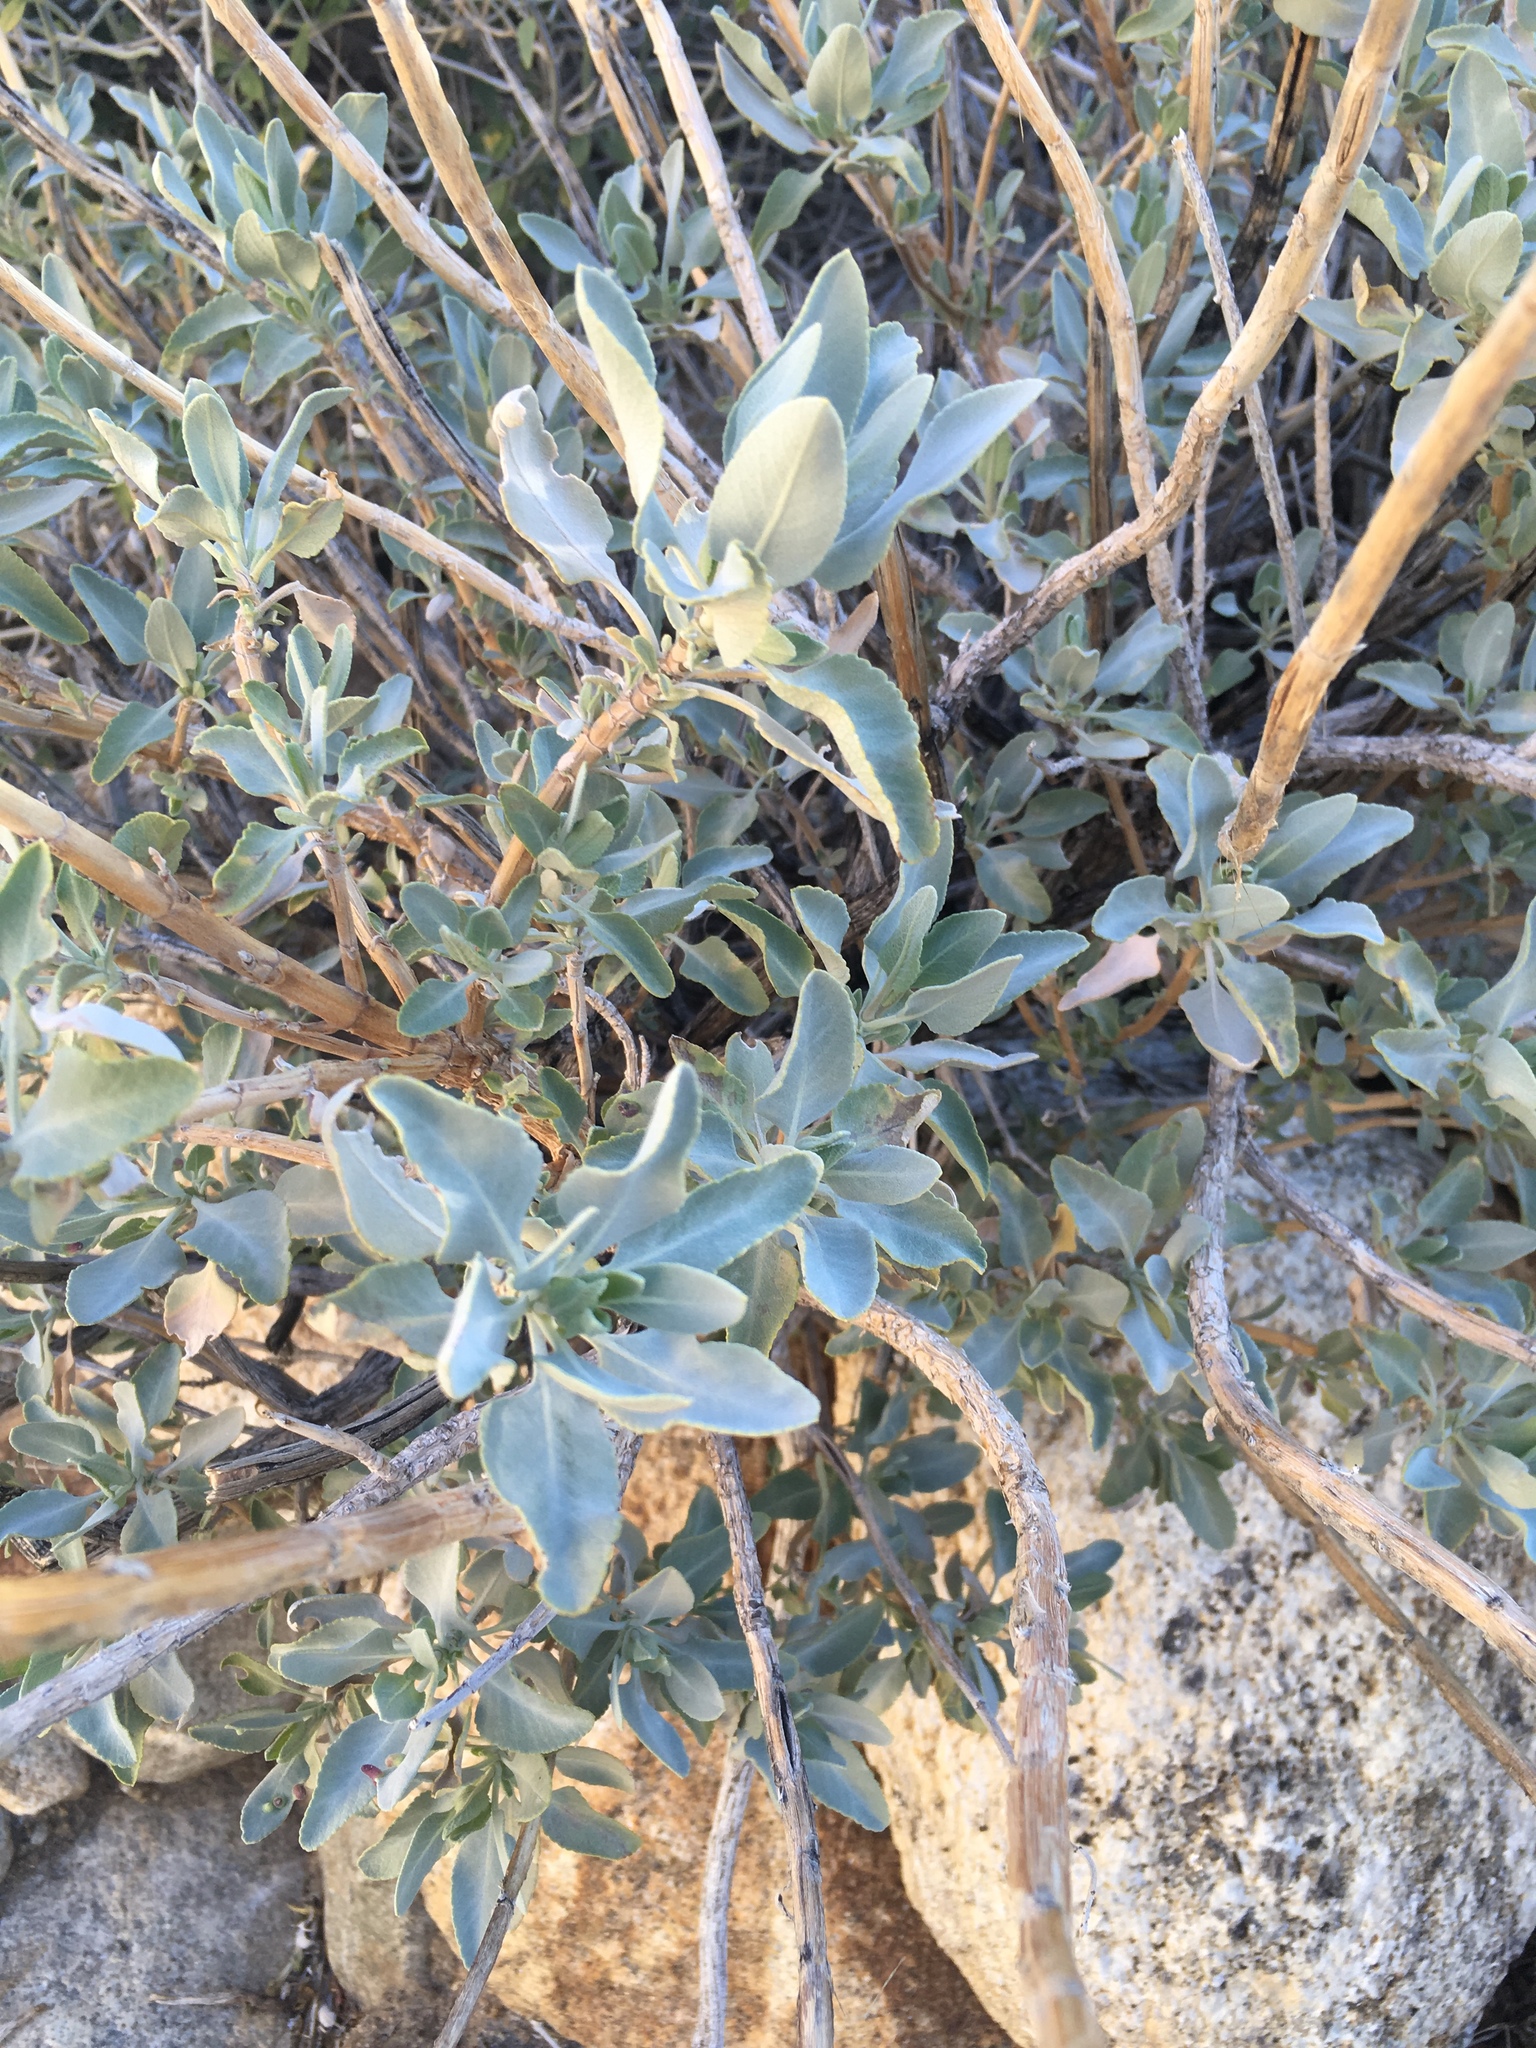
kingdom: Plantae
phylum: Tracheophyta
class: Magnoliopsida
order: Lamiales
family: Lamiaceae
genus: Salvia
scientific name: Salvia vaseyi
